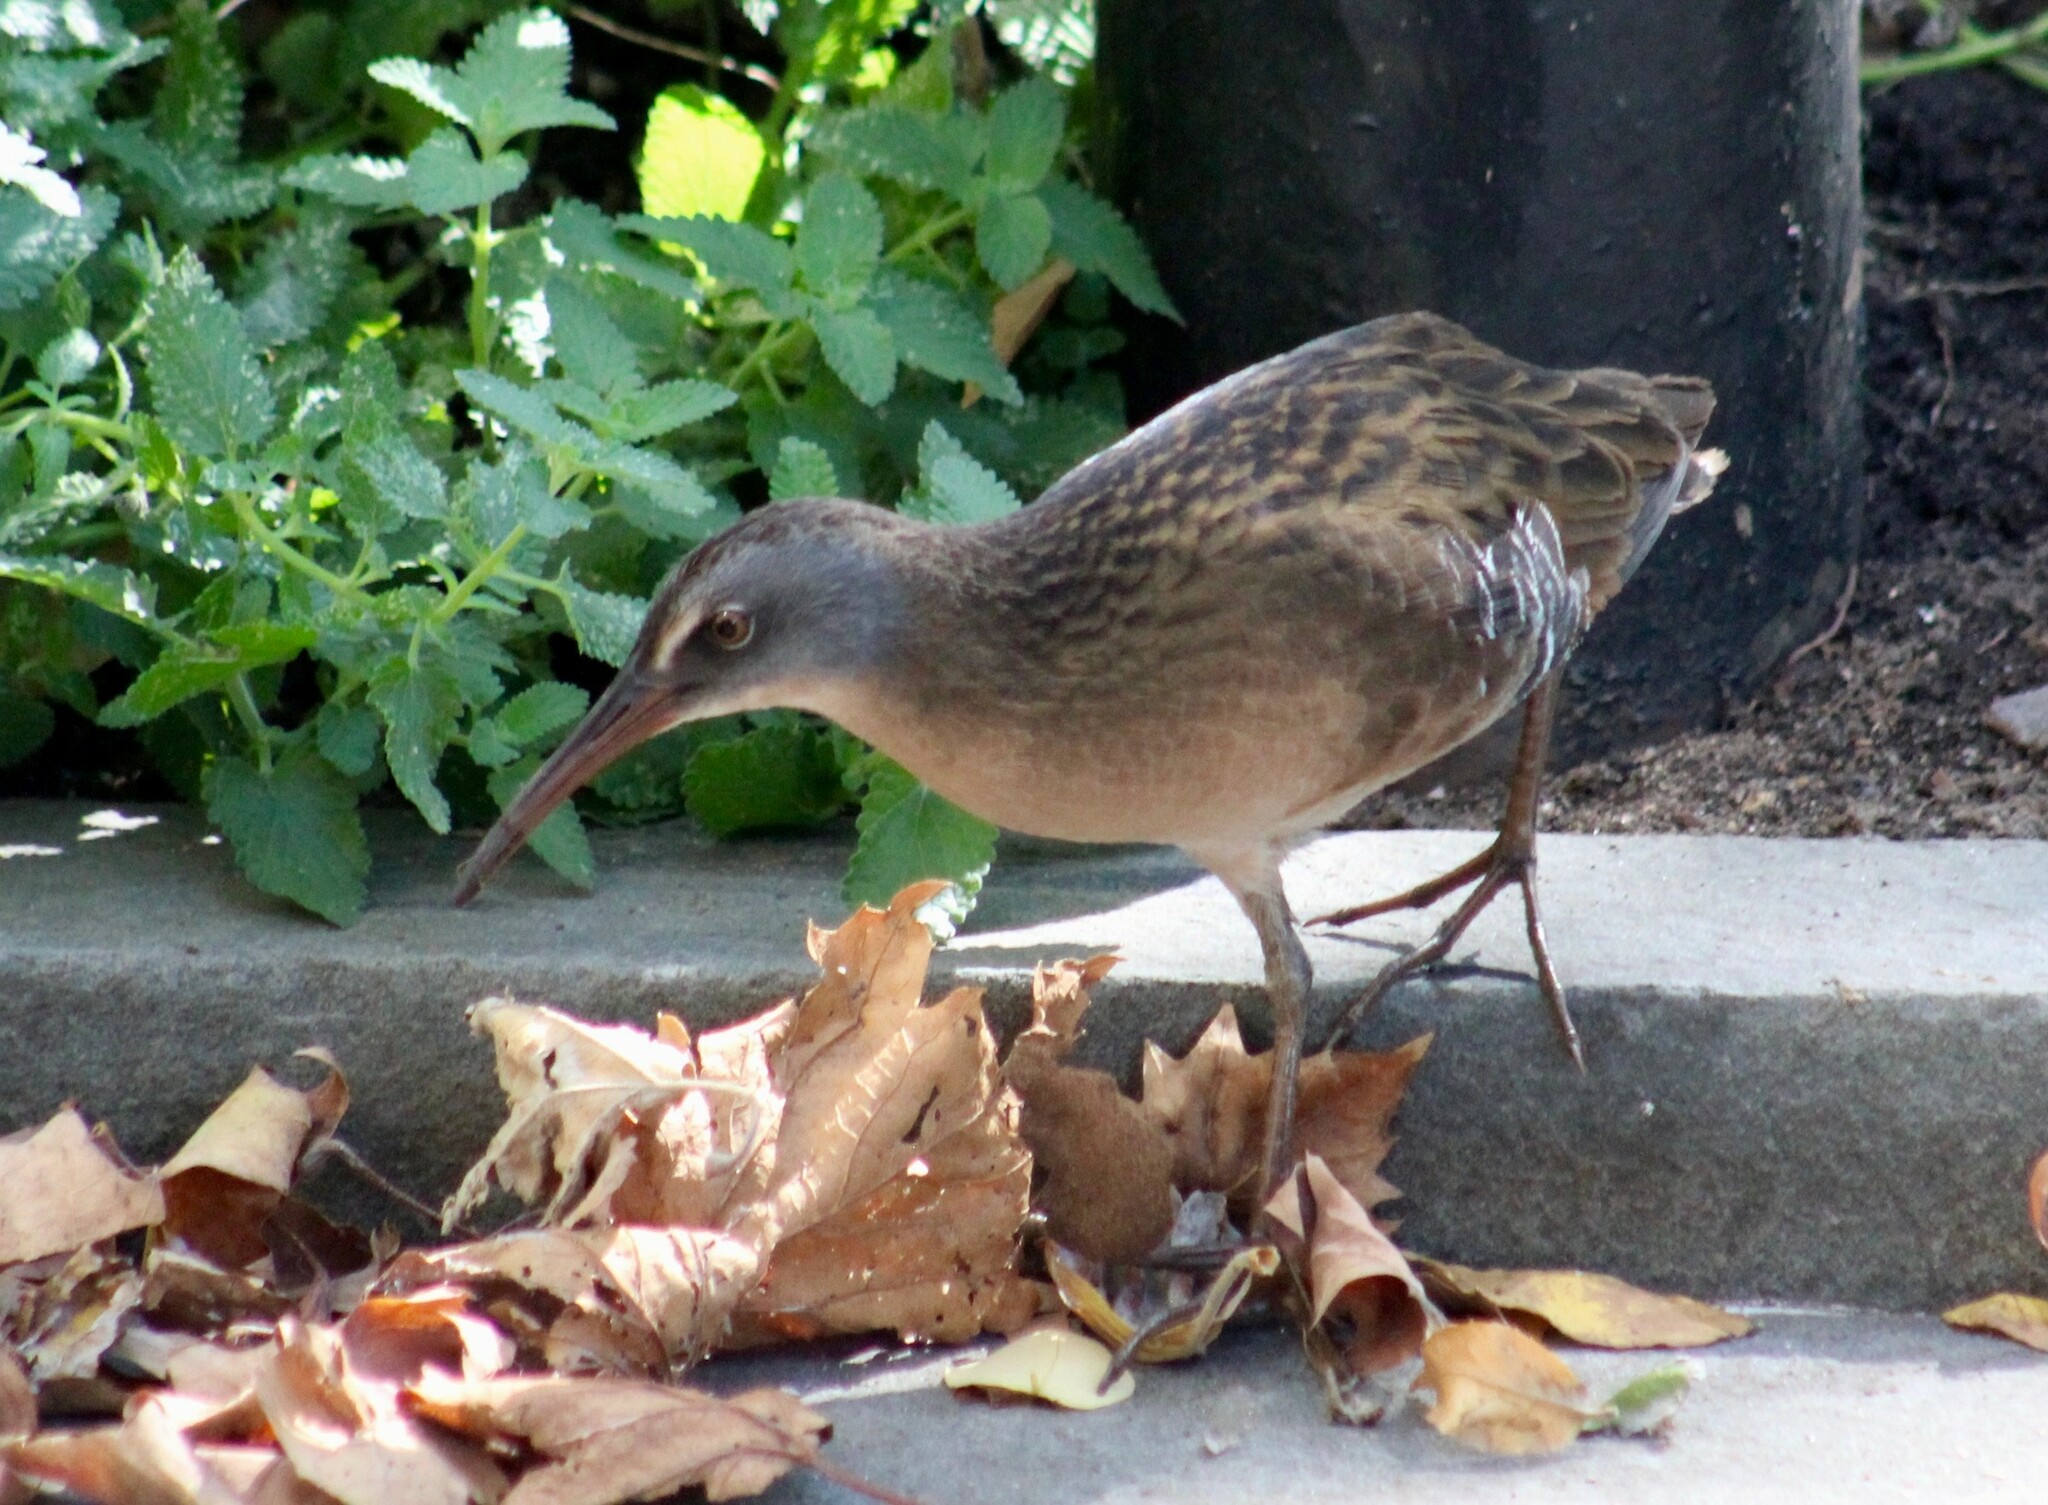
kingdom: Animalia
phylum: Chordata
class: Aves
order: Gruiformes
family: Rallidae
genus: Rallus
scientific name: Rallus limicola
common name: Virginia rail
